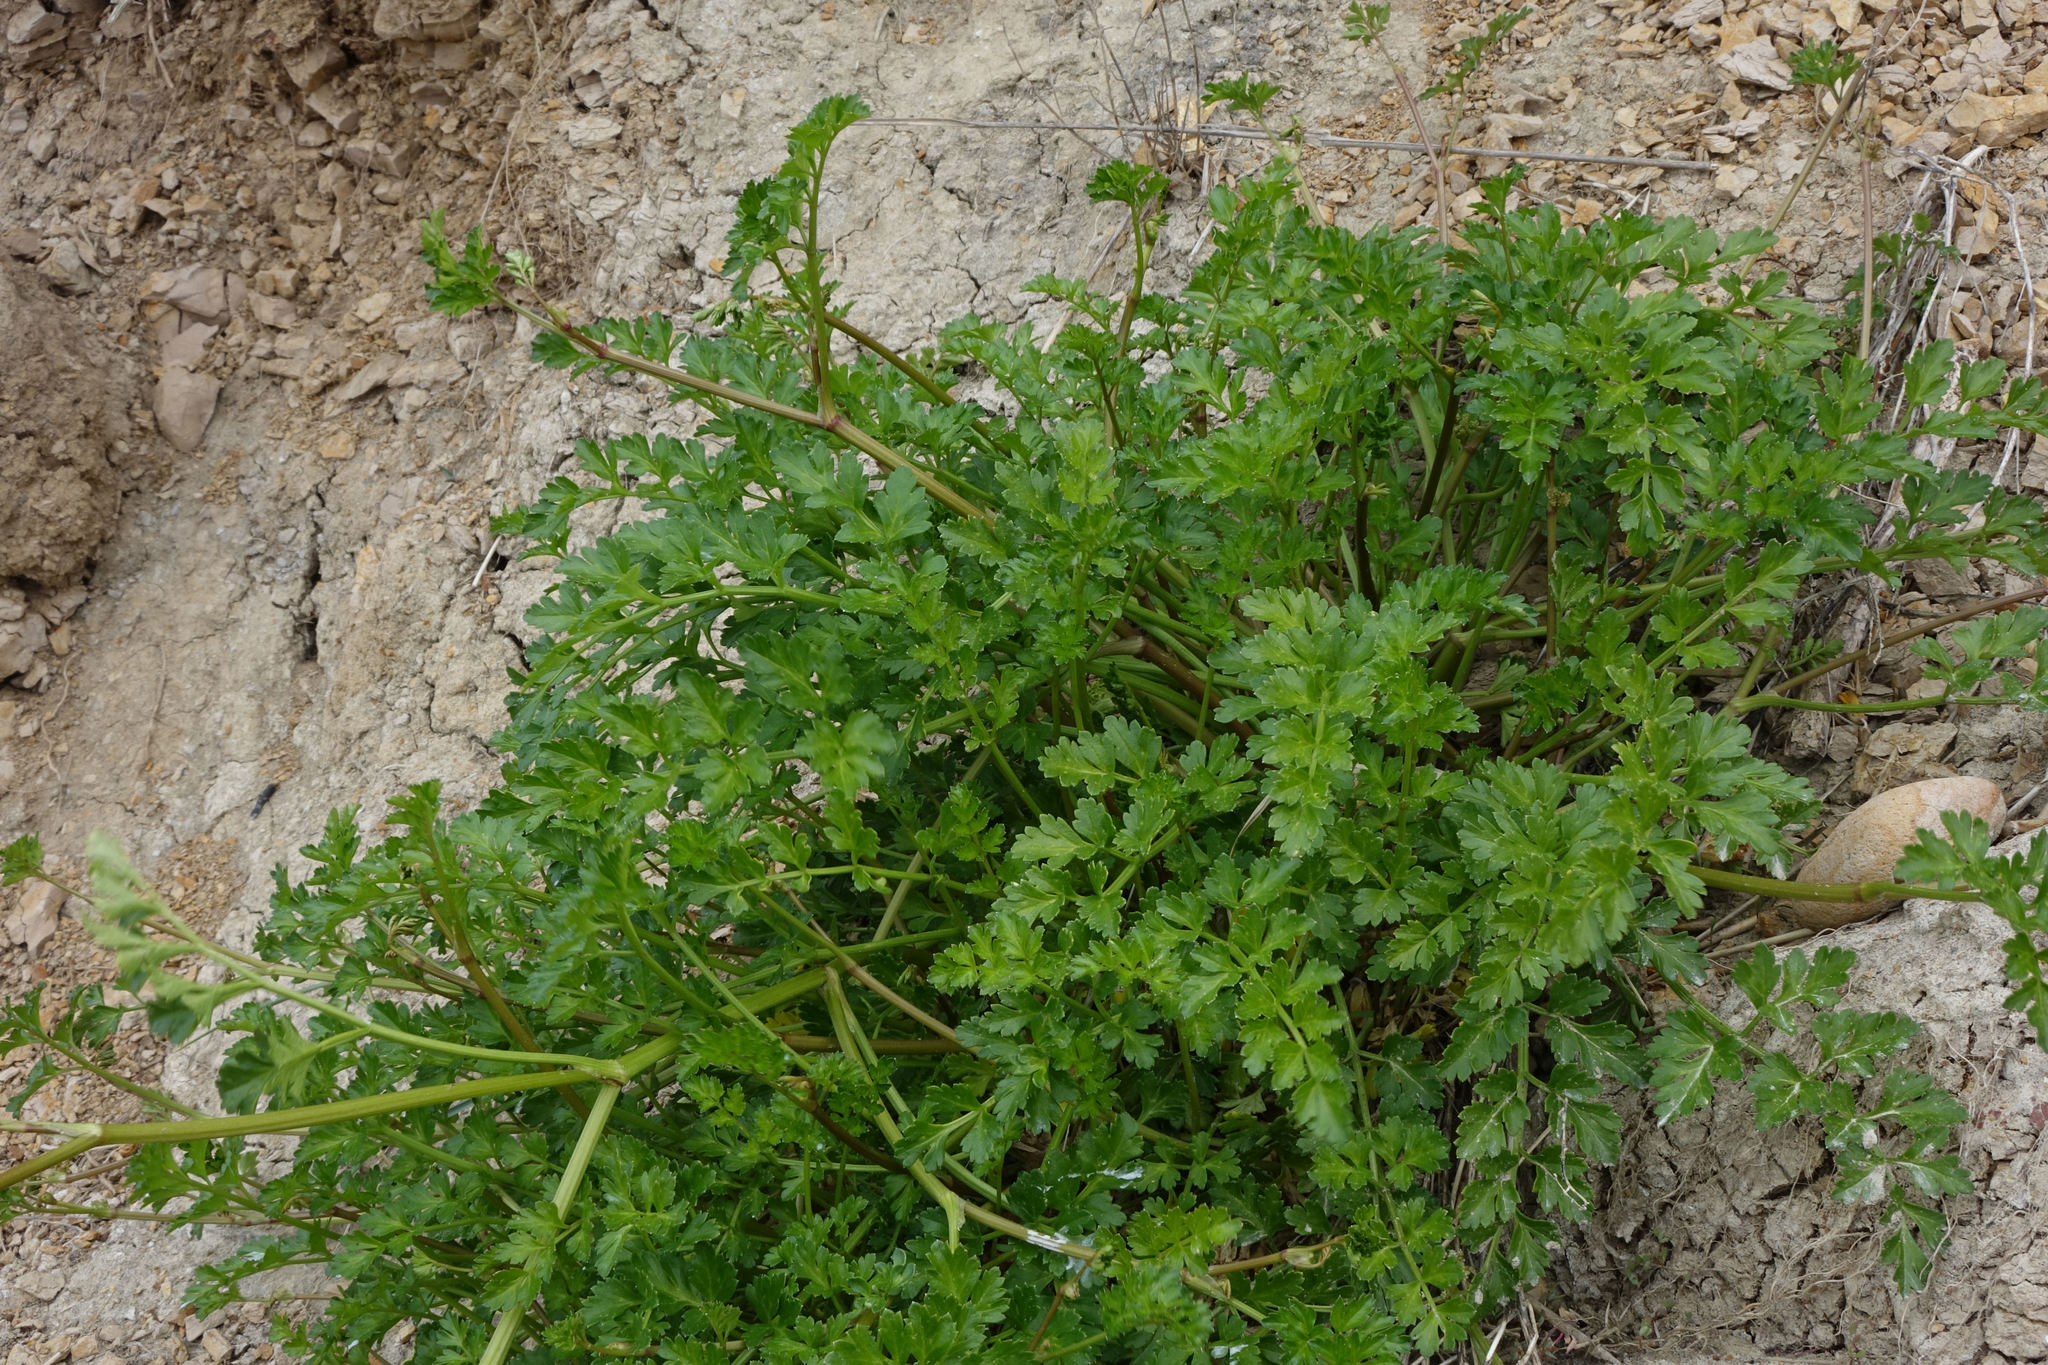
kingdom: Plantae
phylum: Tracheophyta
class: Magnoliopsida
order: Apiales
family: Apiaceae
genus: Apium
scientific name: Apium prostratum
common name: Prostrate marshwort
